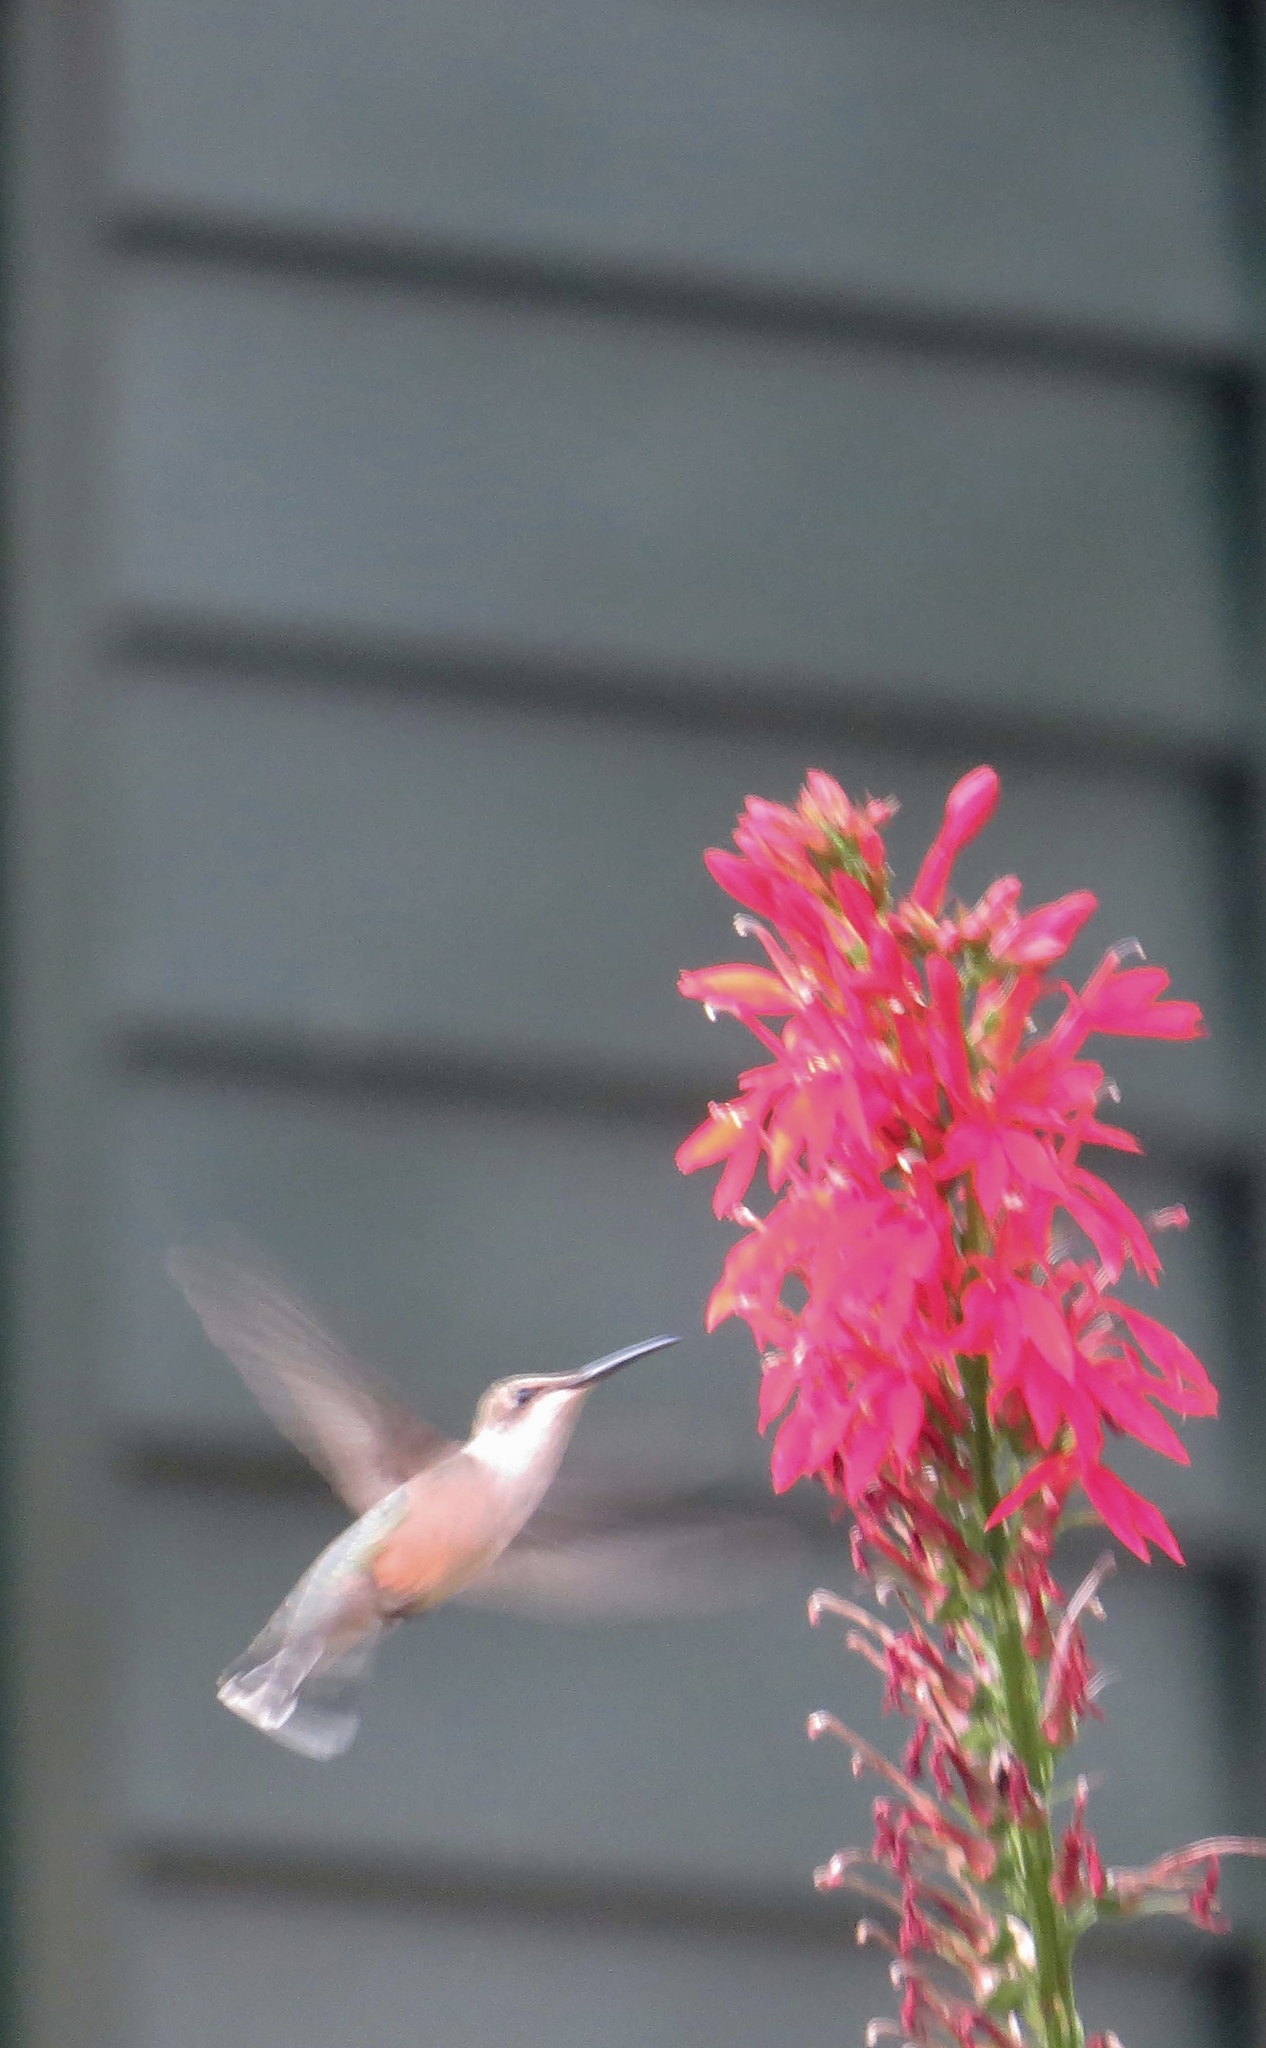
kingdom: Animalia
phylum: Chordata
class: Aves
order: Apodiformes
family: Trochilidae
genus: Archilochus
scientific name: Archilochus colubris
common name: Ruby-throated hummingbird
